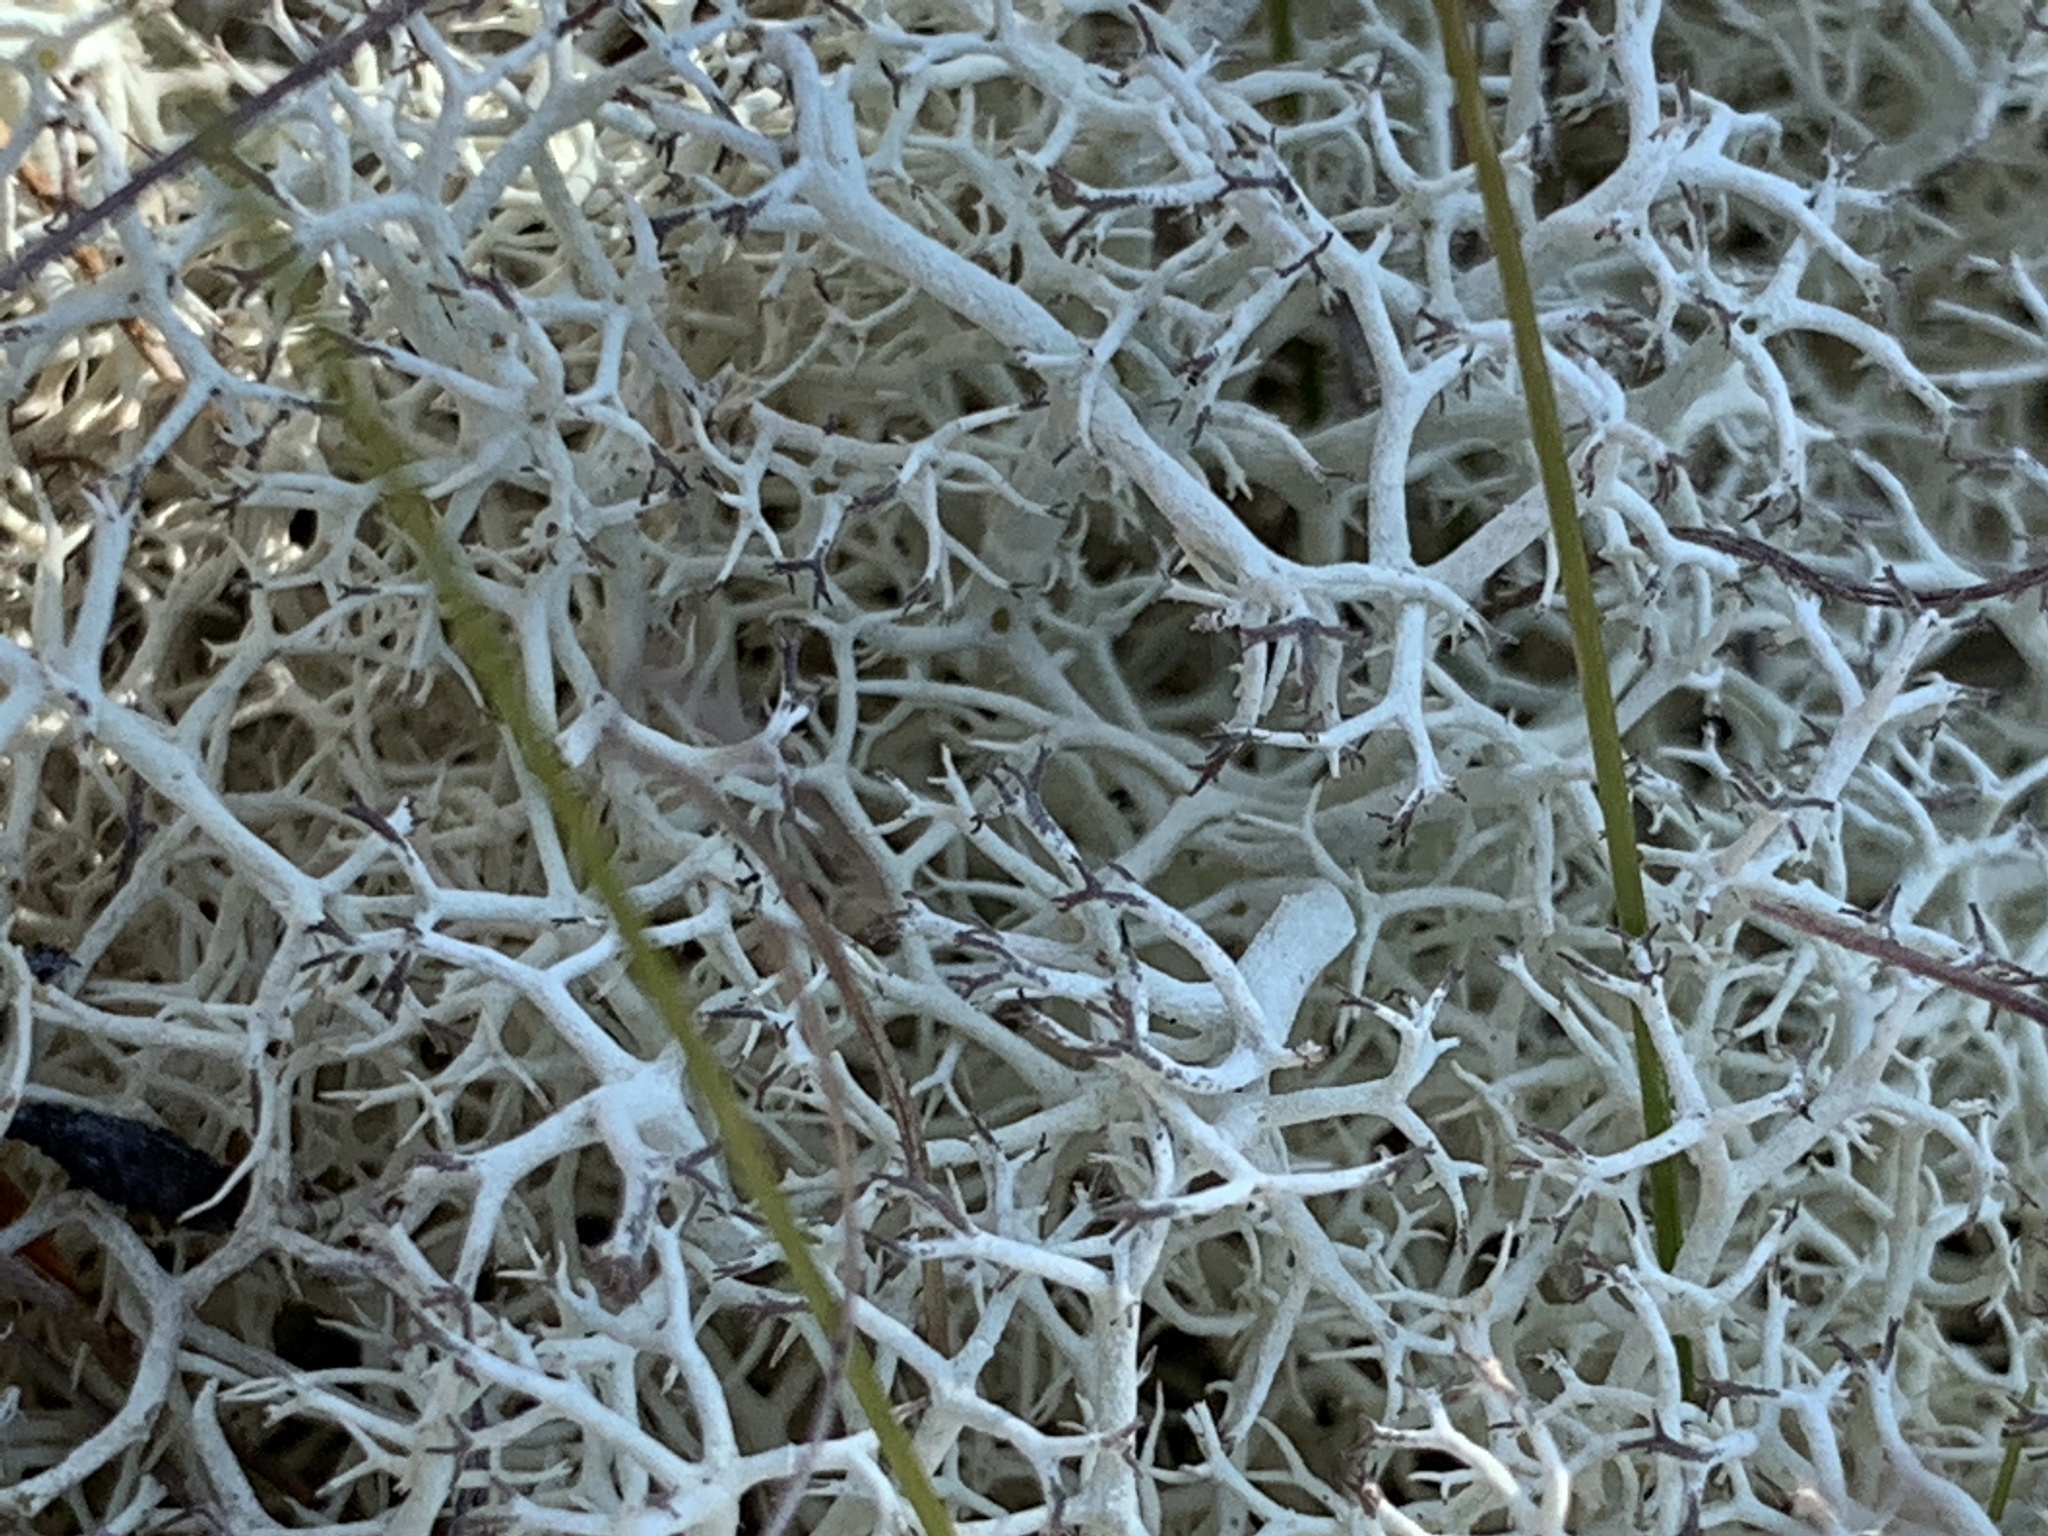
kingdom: Fungi
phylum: Ascomycota
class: Lecanoromycetes
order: Lecanorales
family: Cladoniaceae
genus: Cladonia
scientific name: Cladonia confusa
